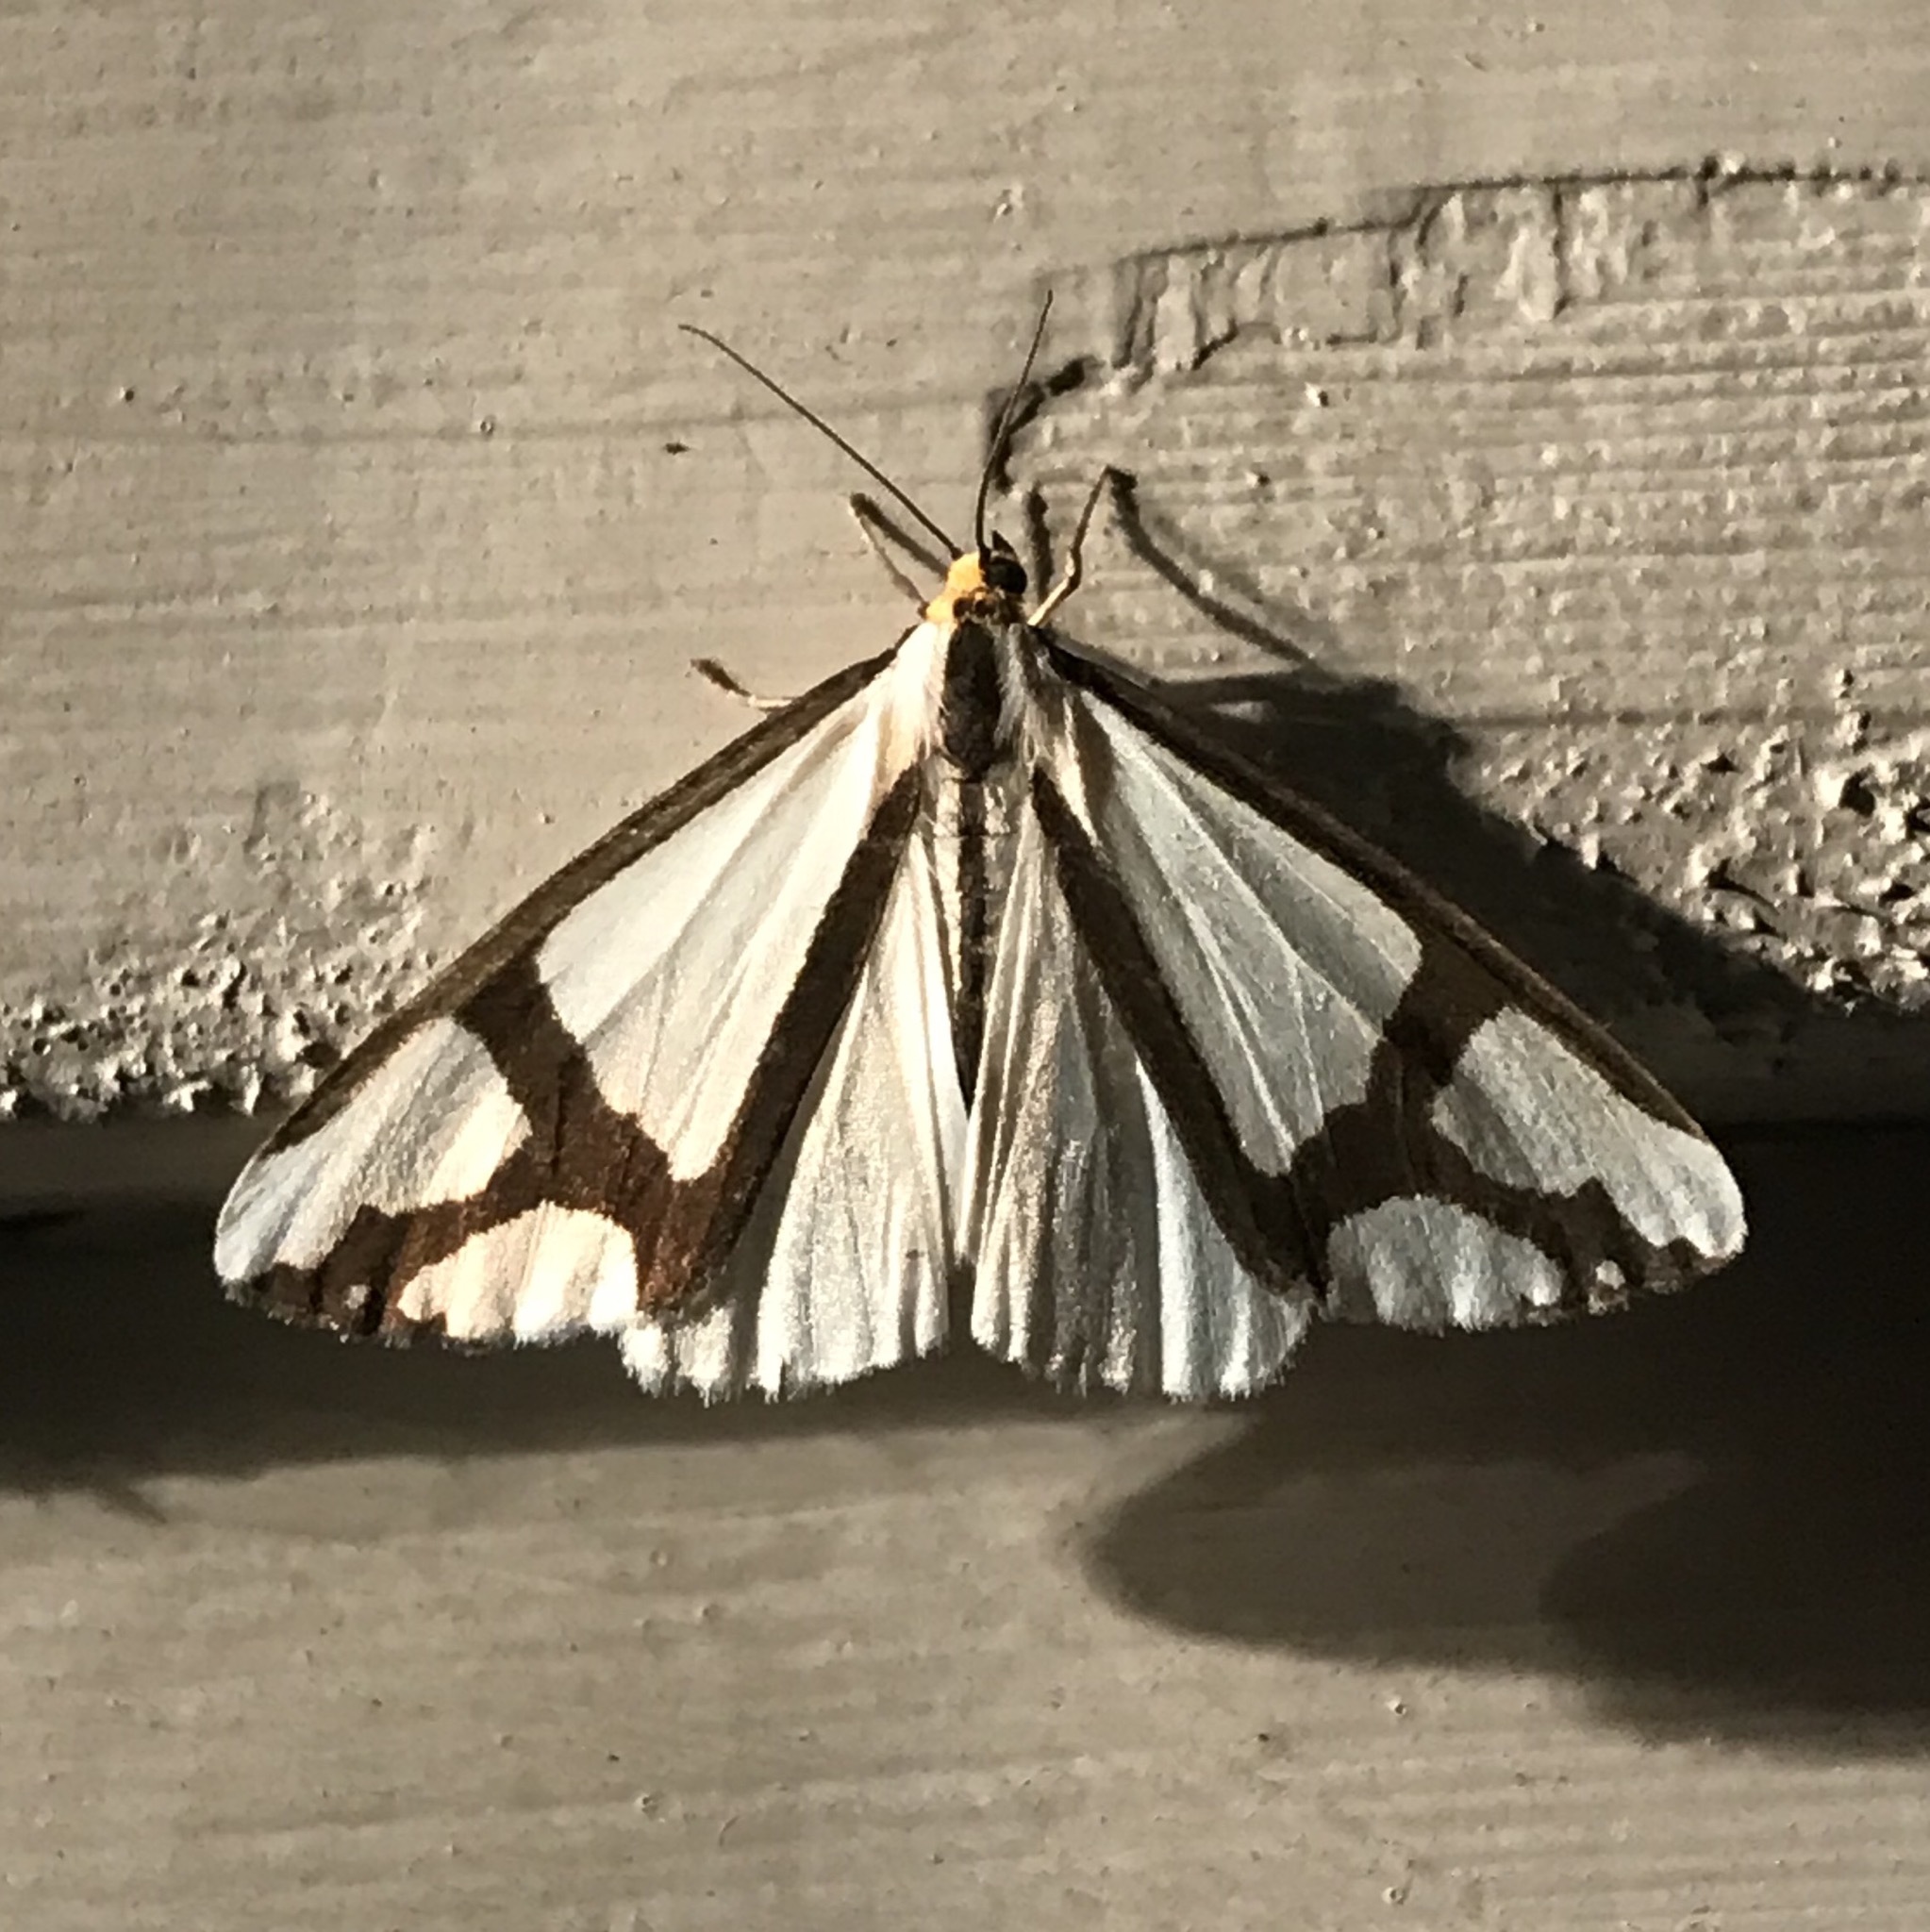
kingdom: Animalia
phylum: Arthropoda
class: Insecta
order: Lepidoptera
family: Erebidae
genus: Haploa
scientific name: Haploa contigua
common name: Neighbor moth
